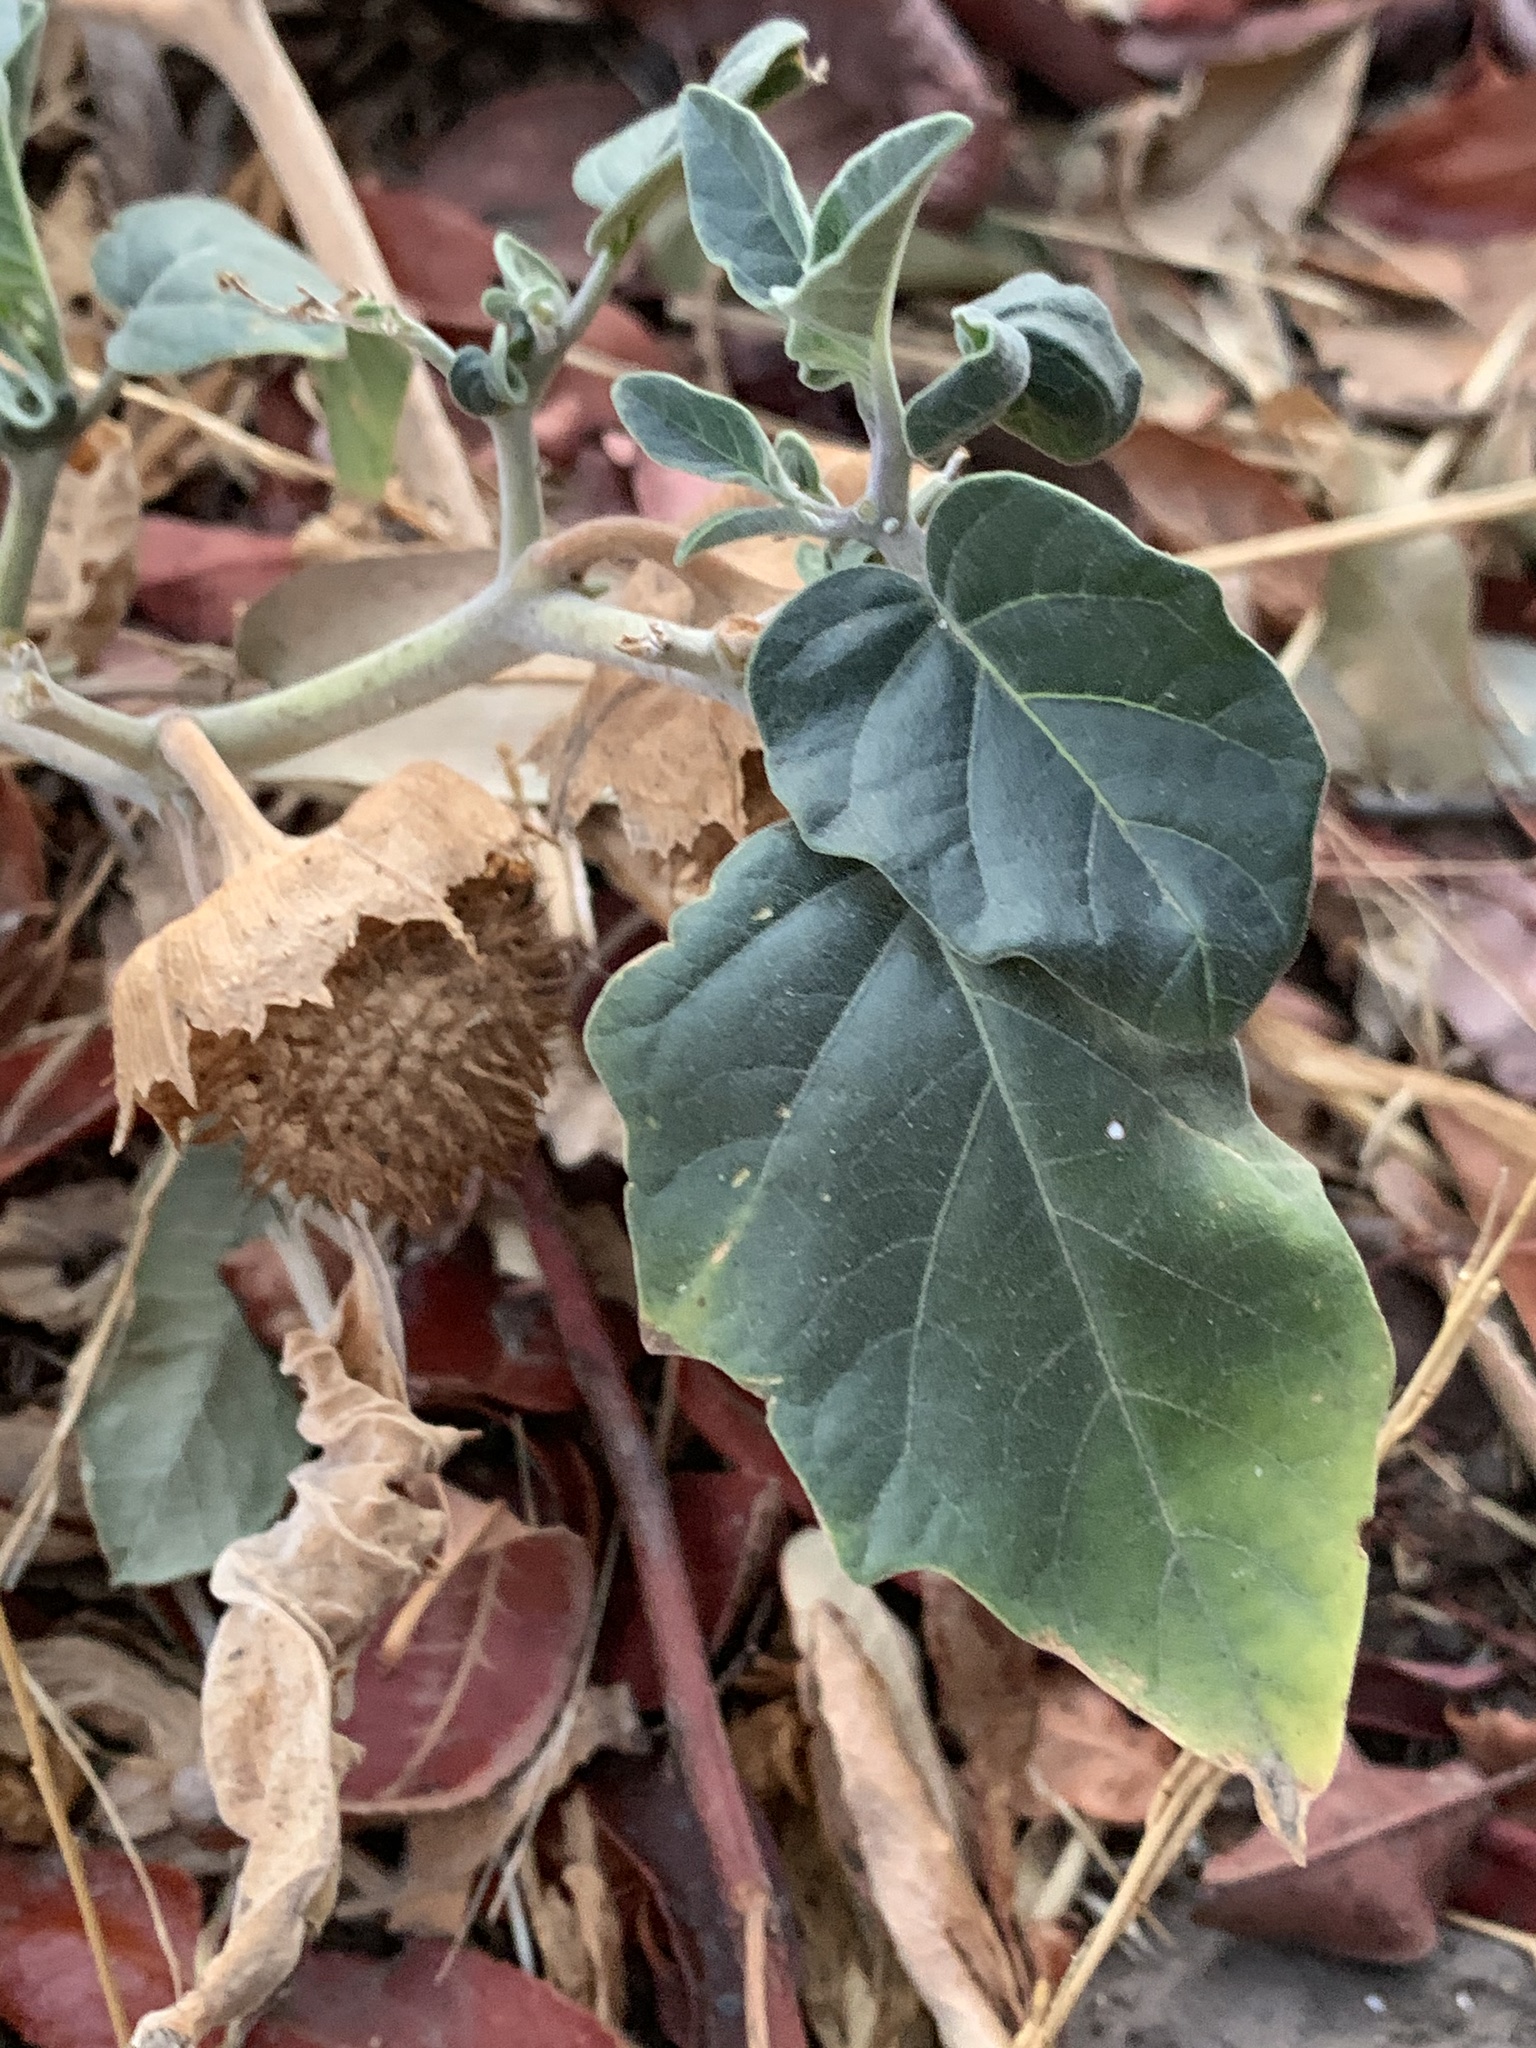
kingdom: Plantae
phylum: Tracheophyta
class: Magnoliopsida
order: Solanales
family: Solanaceae
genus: Datura
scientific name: Datura wrightii
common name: Sacred thorn-apple
